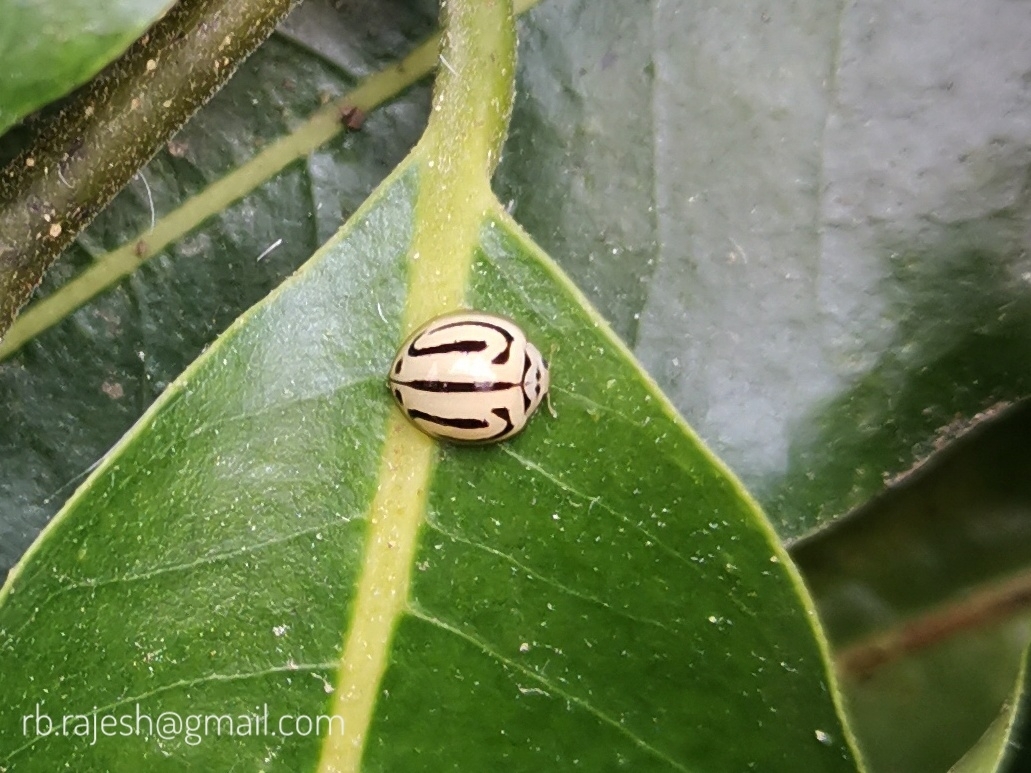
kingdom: Animalia
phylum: Arthropoda
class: Insecta
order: Coleoptera
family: Coccinellidae
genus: Anegleis
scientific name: Anegleis cardoni
